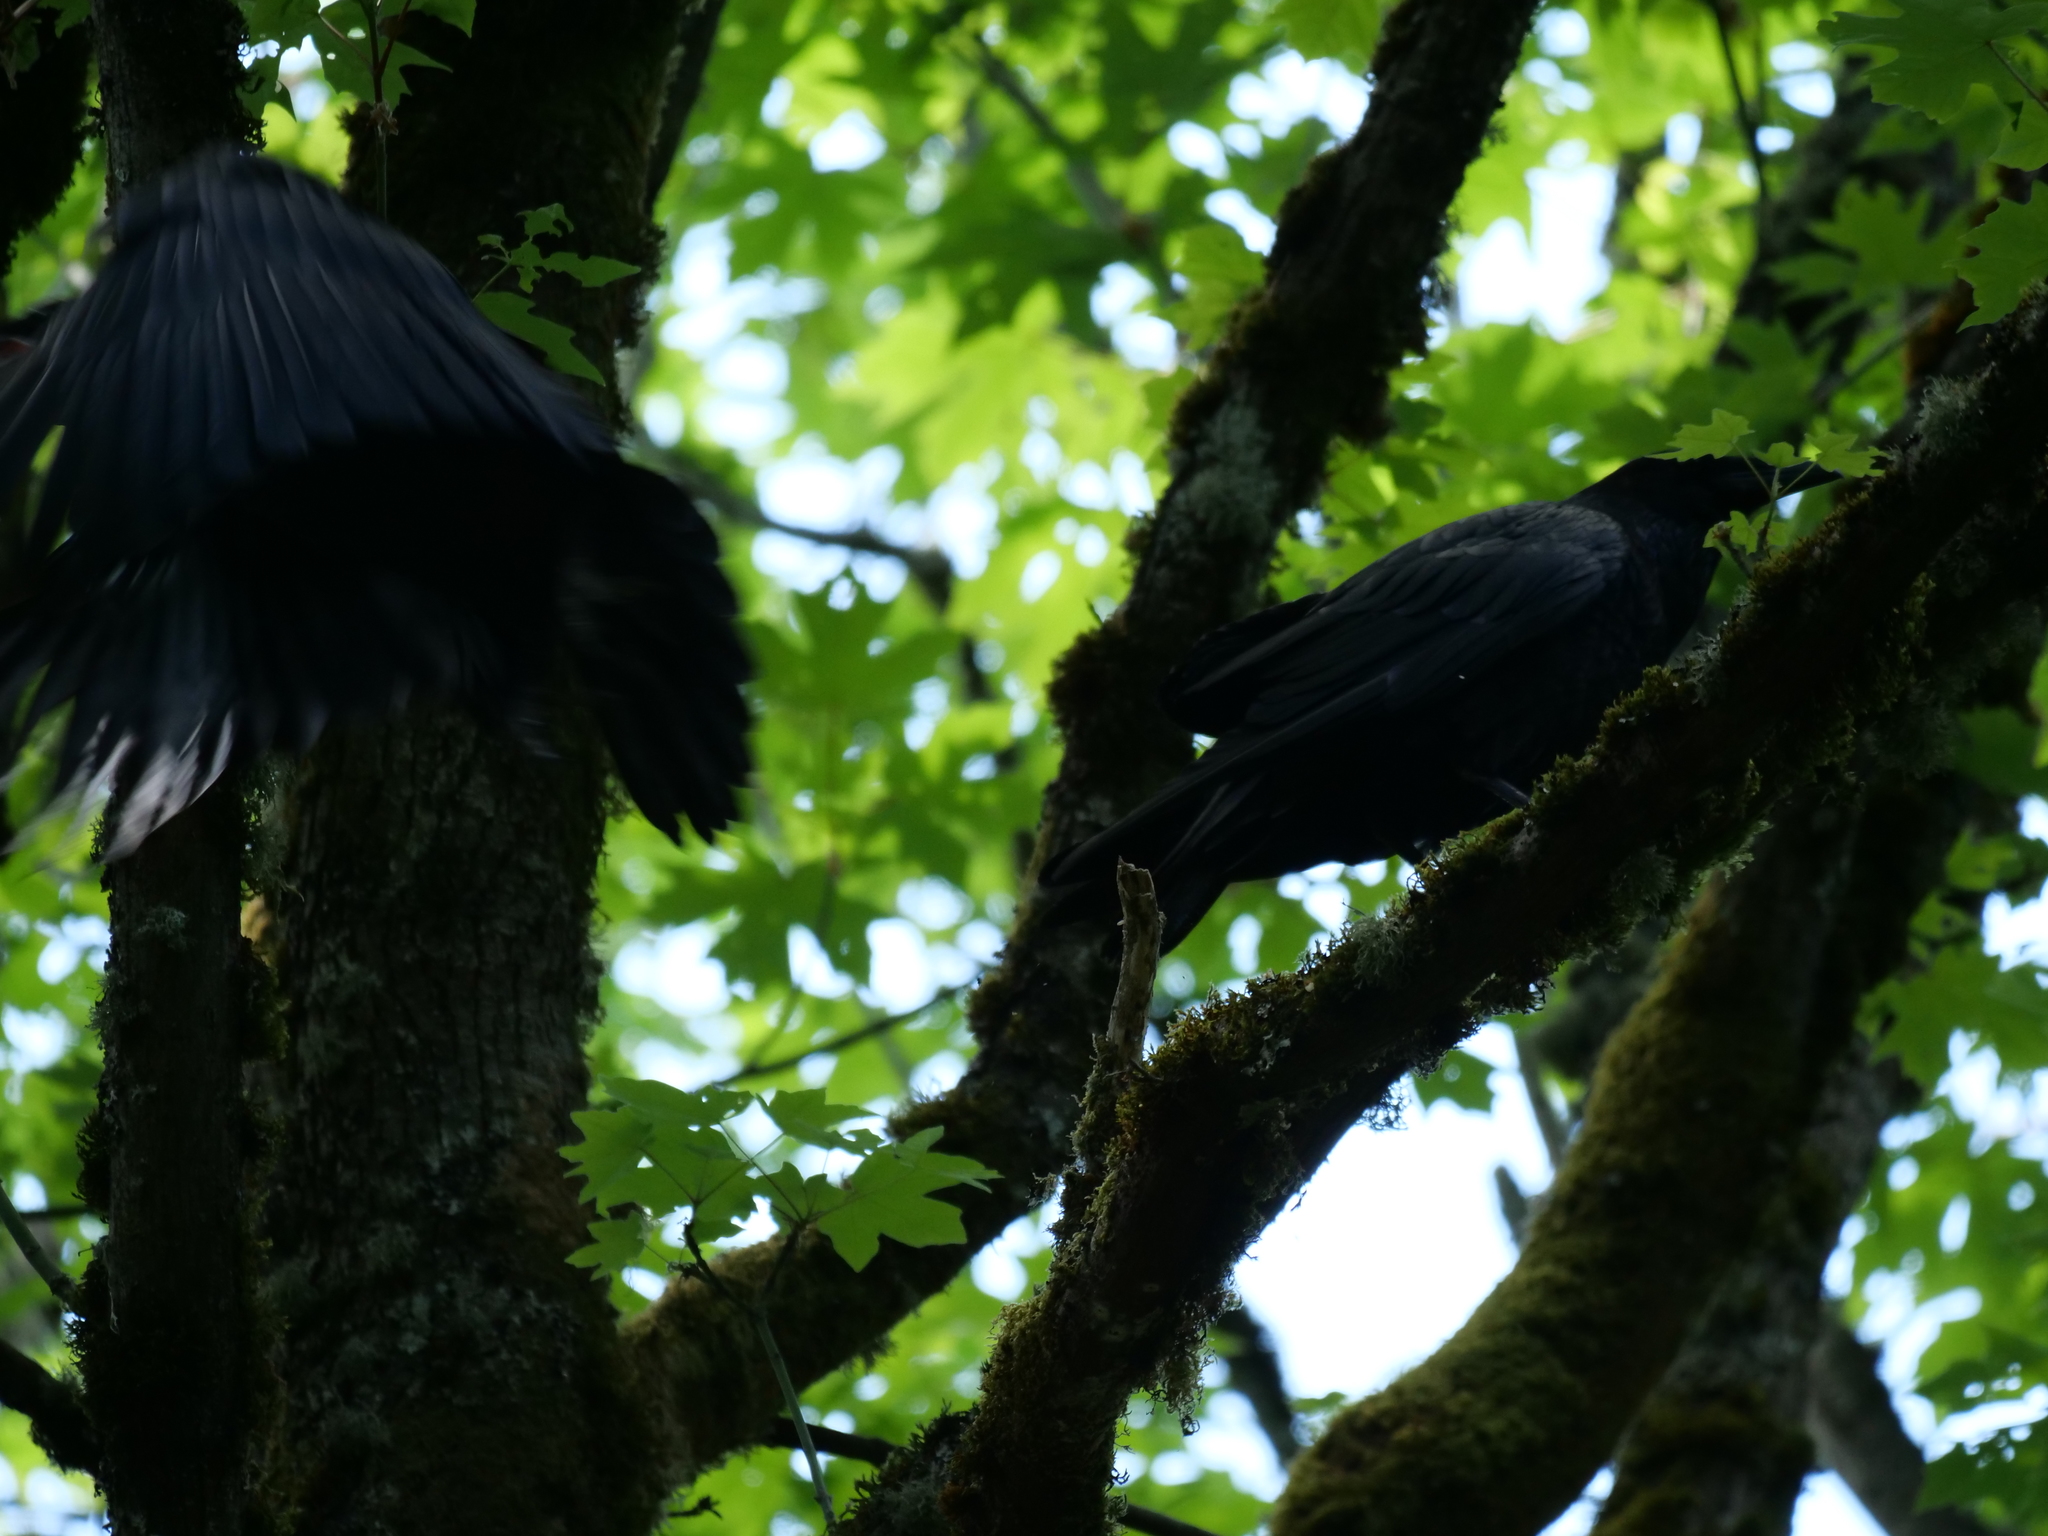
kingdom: Animalia
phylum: Chordata
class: Aves
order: Passeriformes
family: Corvidae
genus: Corvus
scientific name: Corvus corax
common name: Common raven
